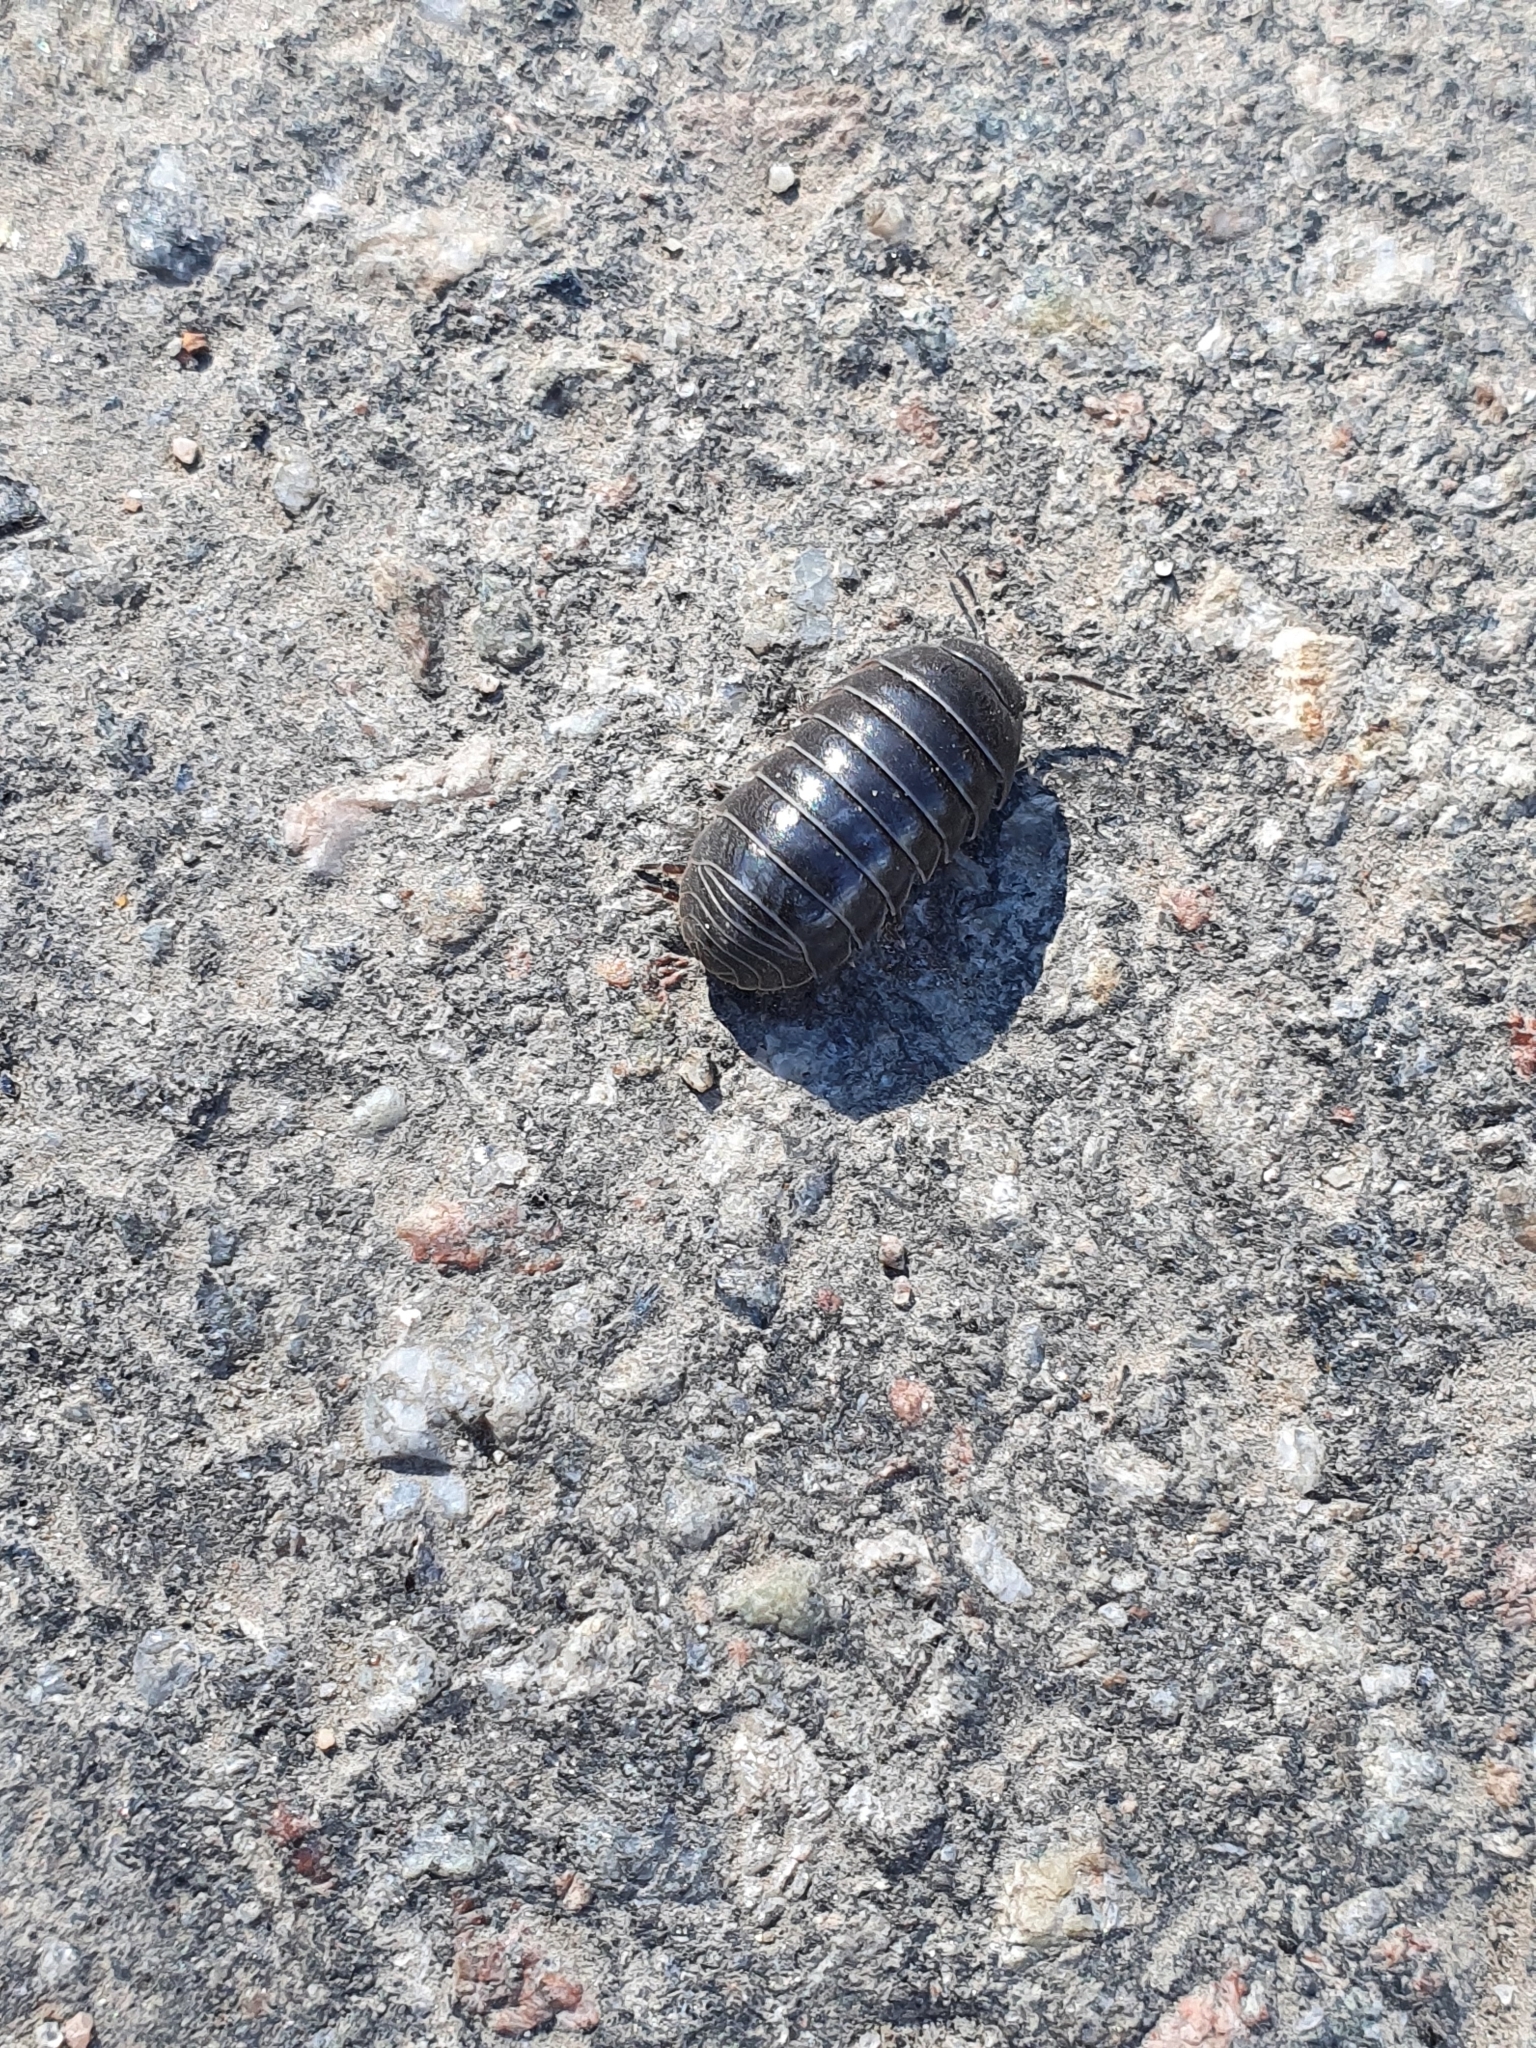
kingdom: Animalia
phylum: Arthropoda
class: Malacostraca
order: Isopoda
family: Armadillidiidae
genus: Armadillidium
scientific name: Armadillidium vulgare
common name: Common pill woodlouse
